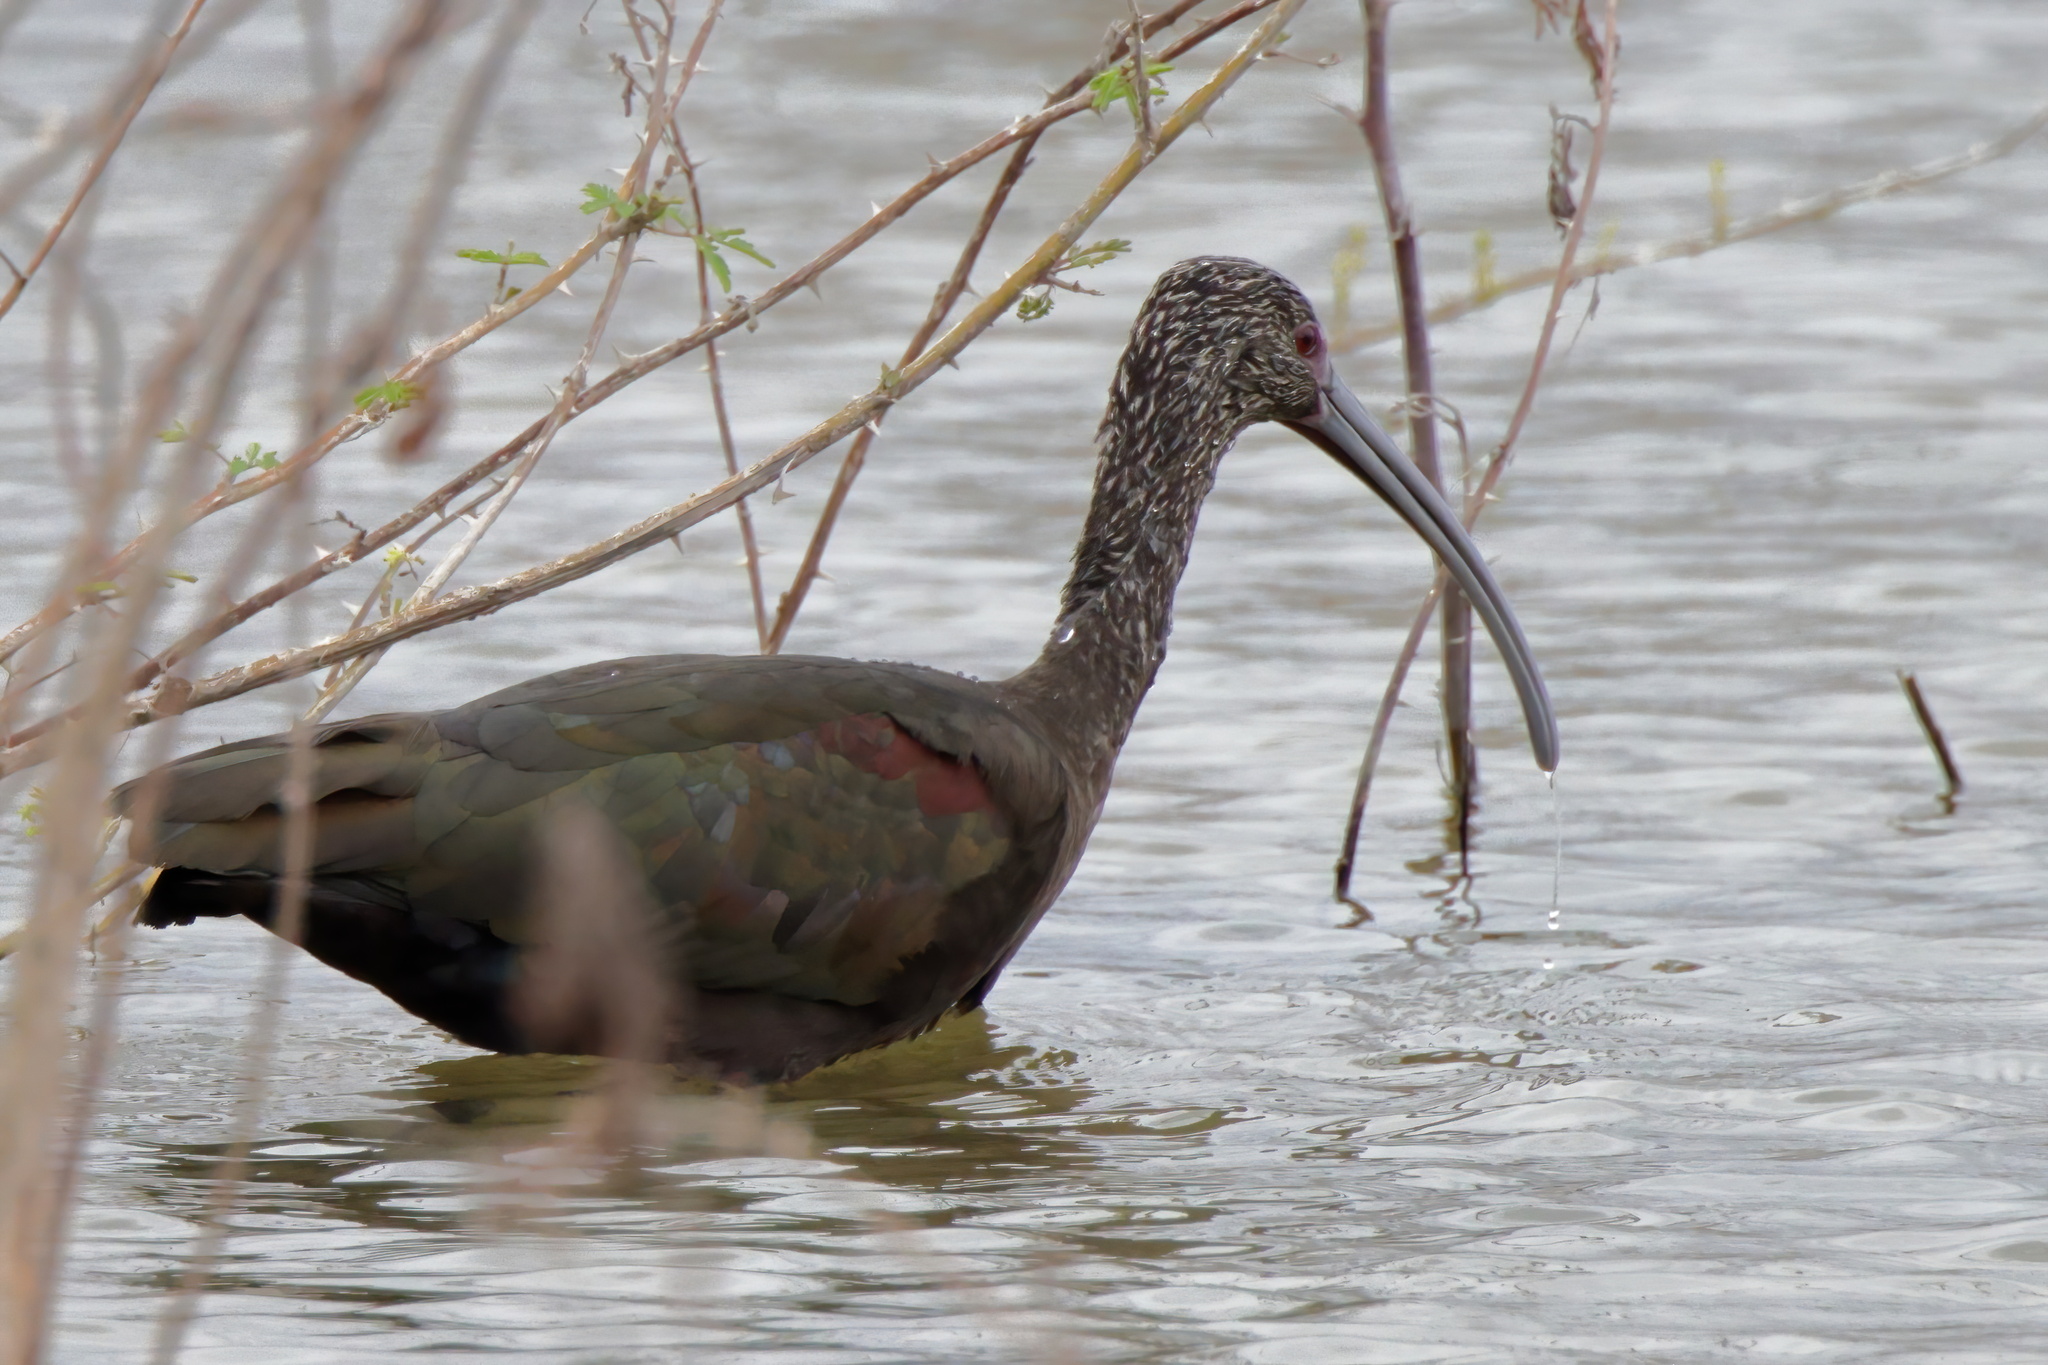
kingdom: Animalia
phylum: Chordata
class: Aves
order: Pelecaniformes
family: Threskiornithidae
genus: Plegadis
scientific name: Plegadis chihi
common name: White-faced ibis
